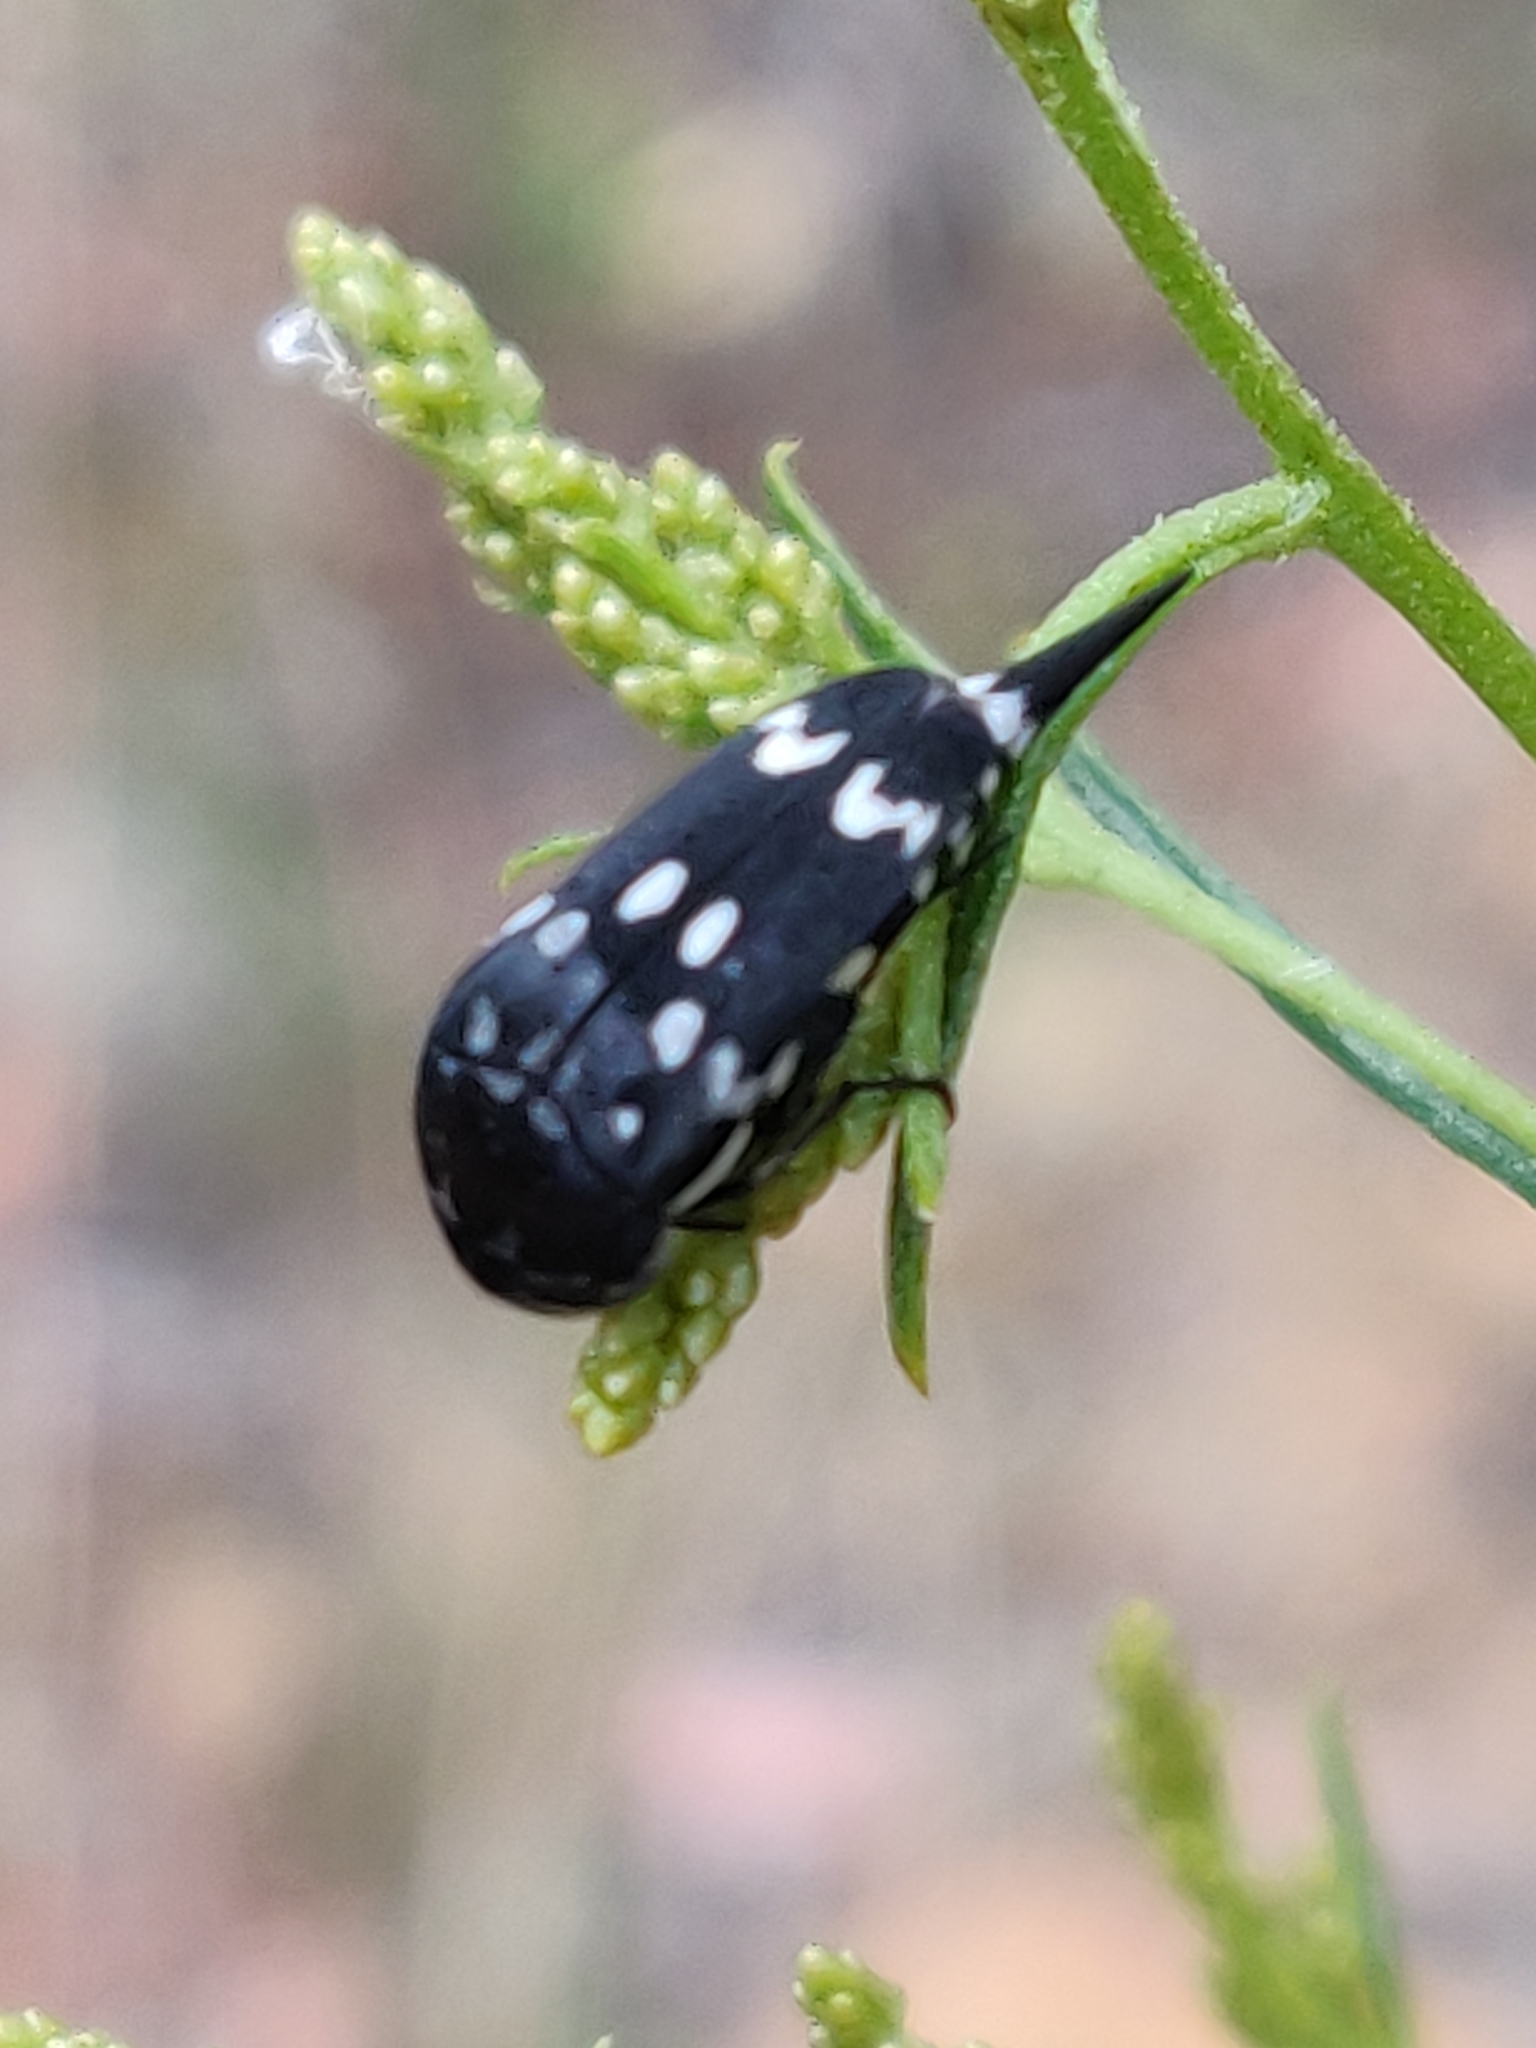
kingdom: Animalia
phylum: Arthropoda
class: Insecta
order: Coleoptera
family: Mordellidae
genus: Hoshihananomia
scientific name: Hoshihananomia
